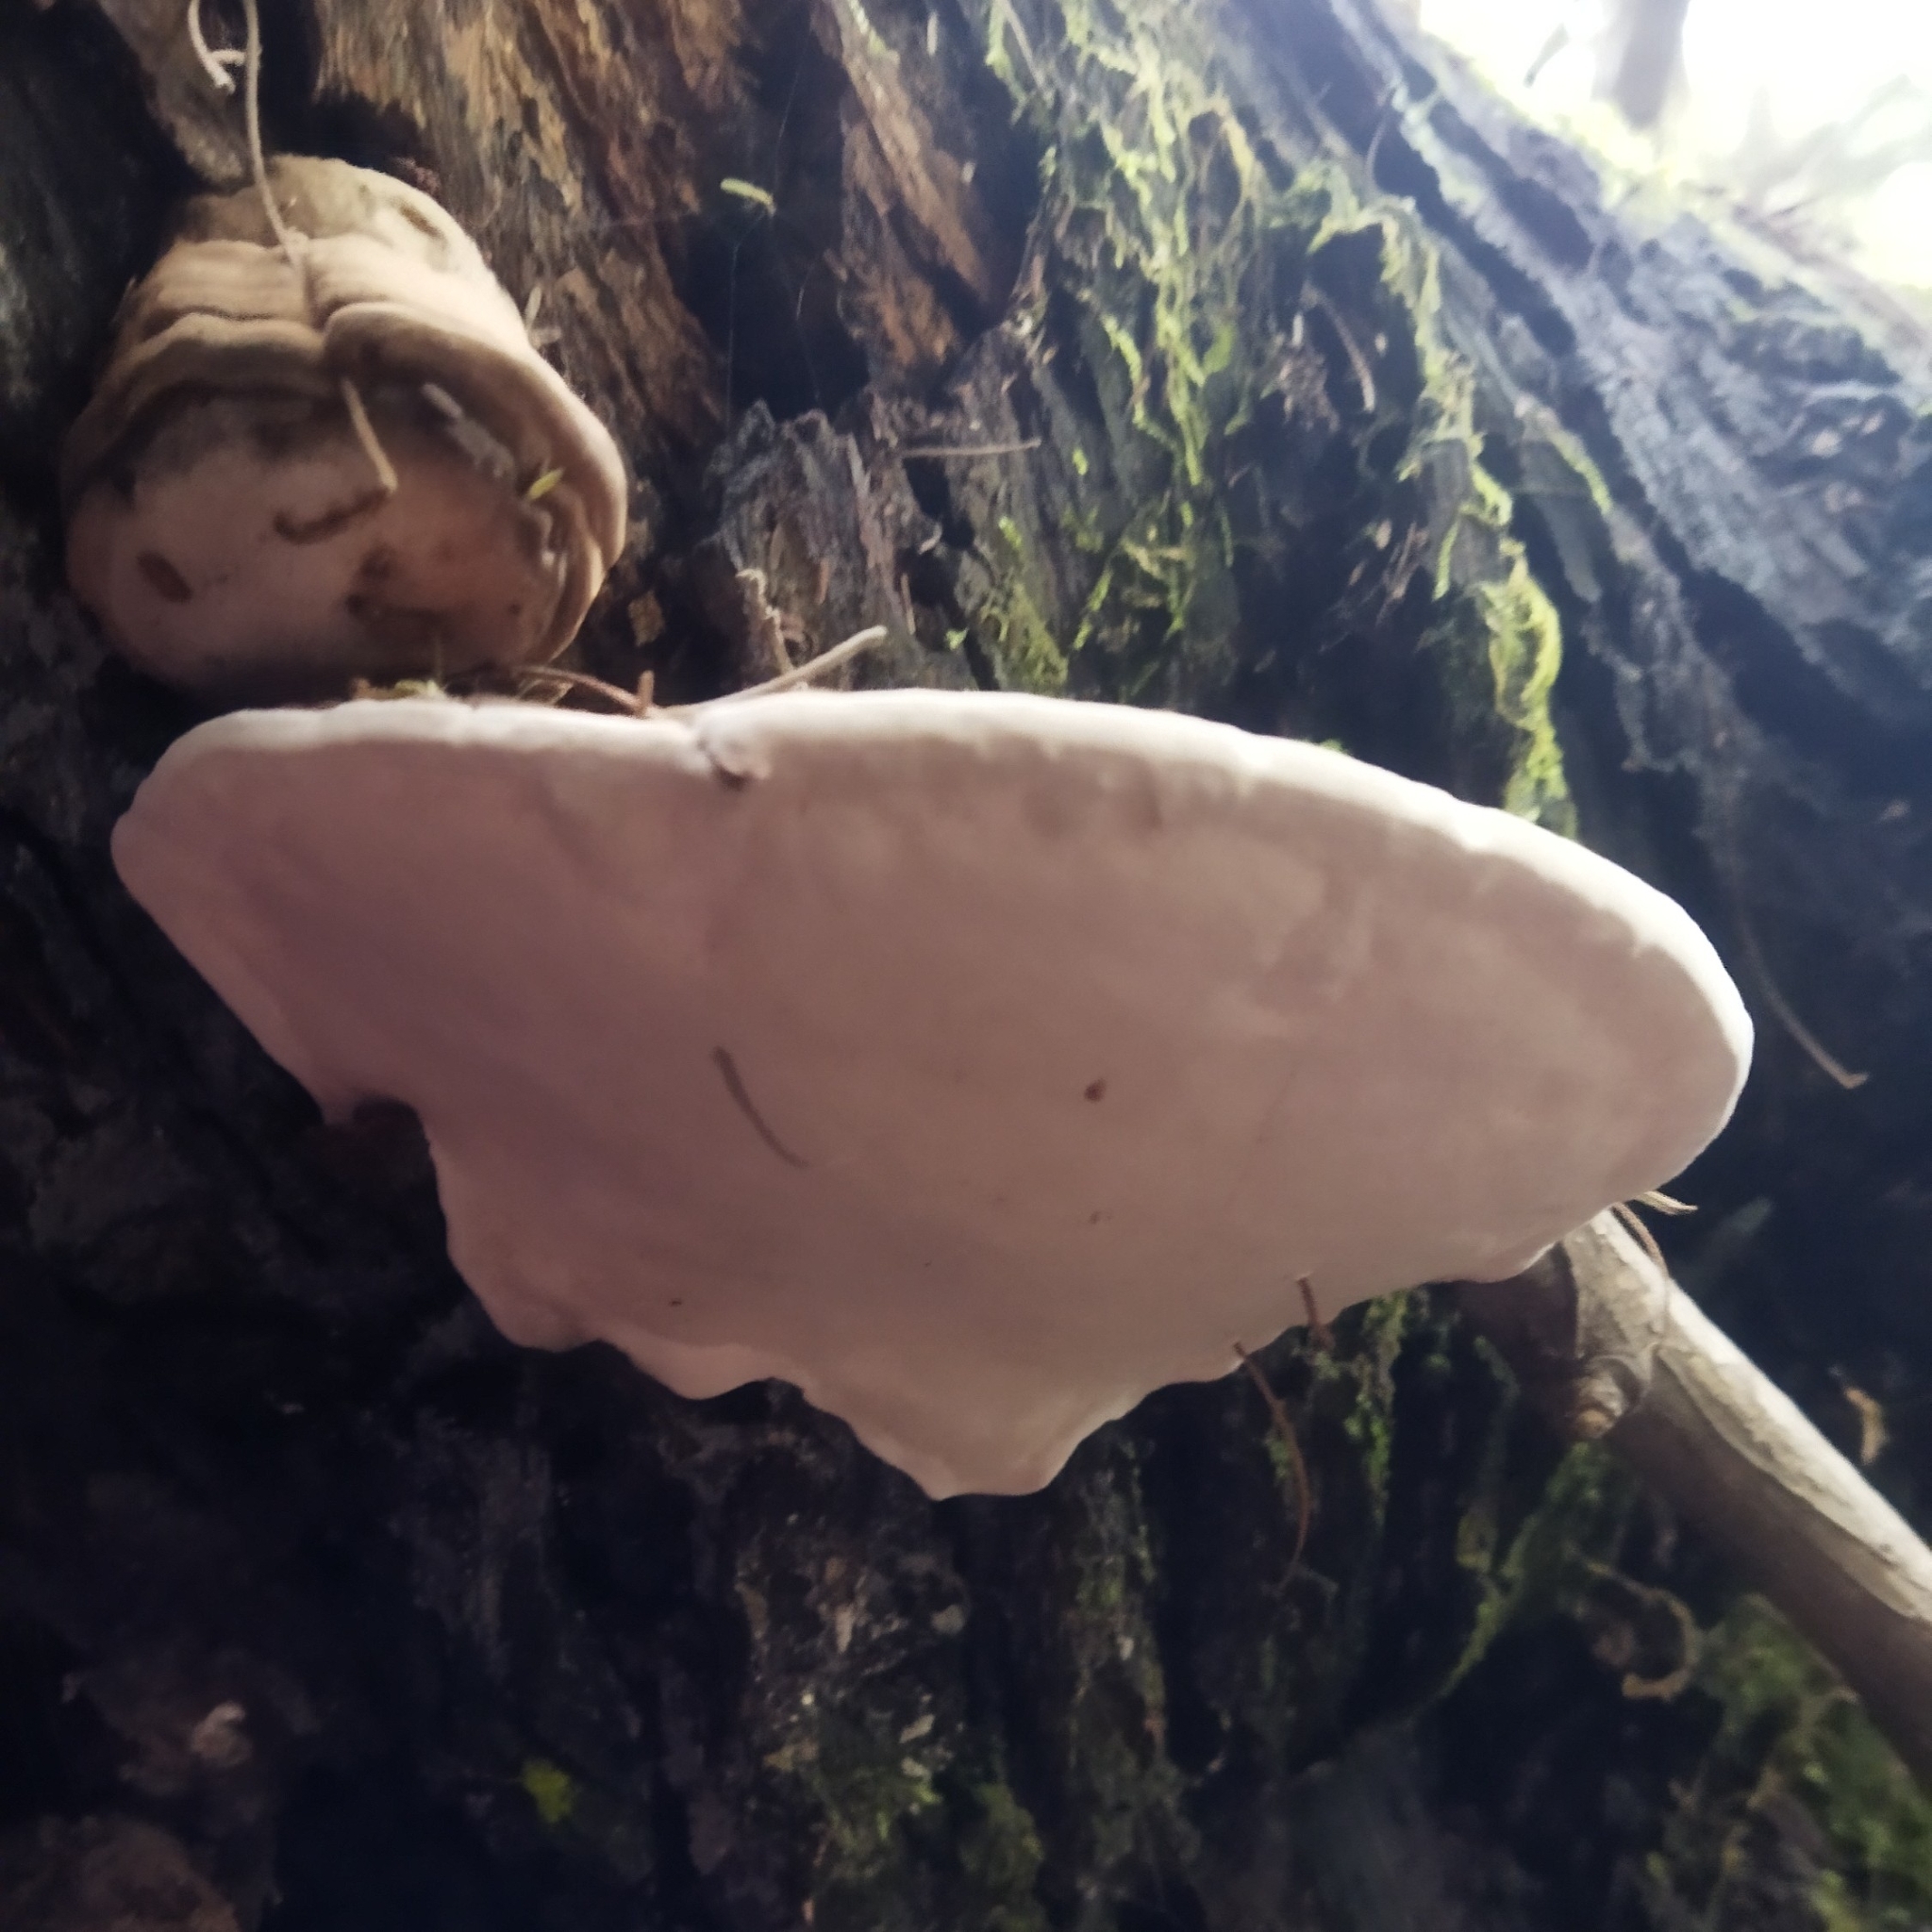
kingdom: Fungi
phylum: Basidiomycota
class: Agaricomycetes
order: Polyporales
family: Polyporaceae
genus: Ganoderma
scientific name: Ganoderma applanatum
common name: Artist's bracket
